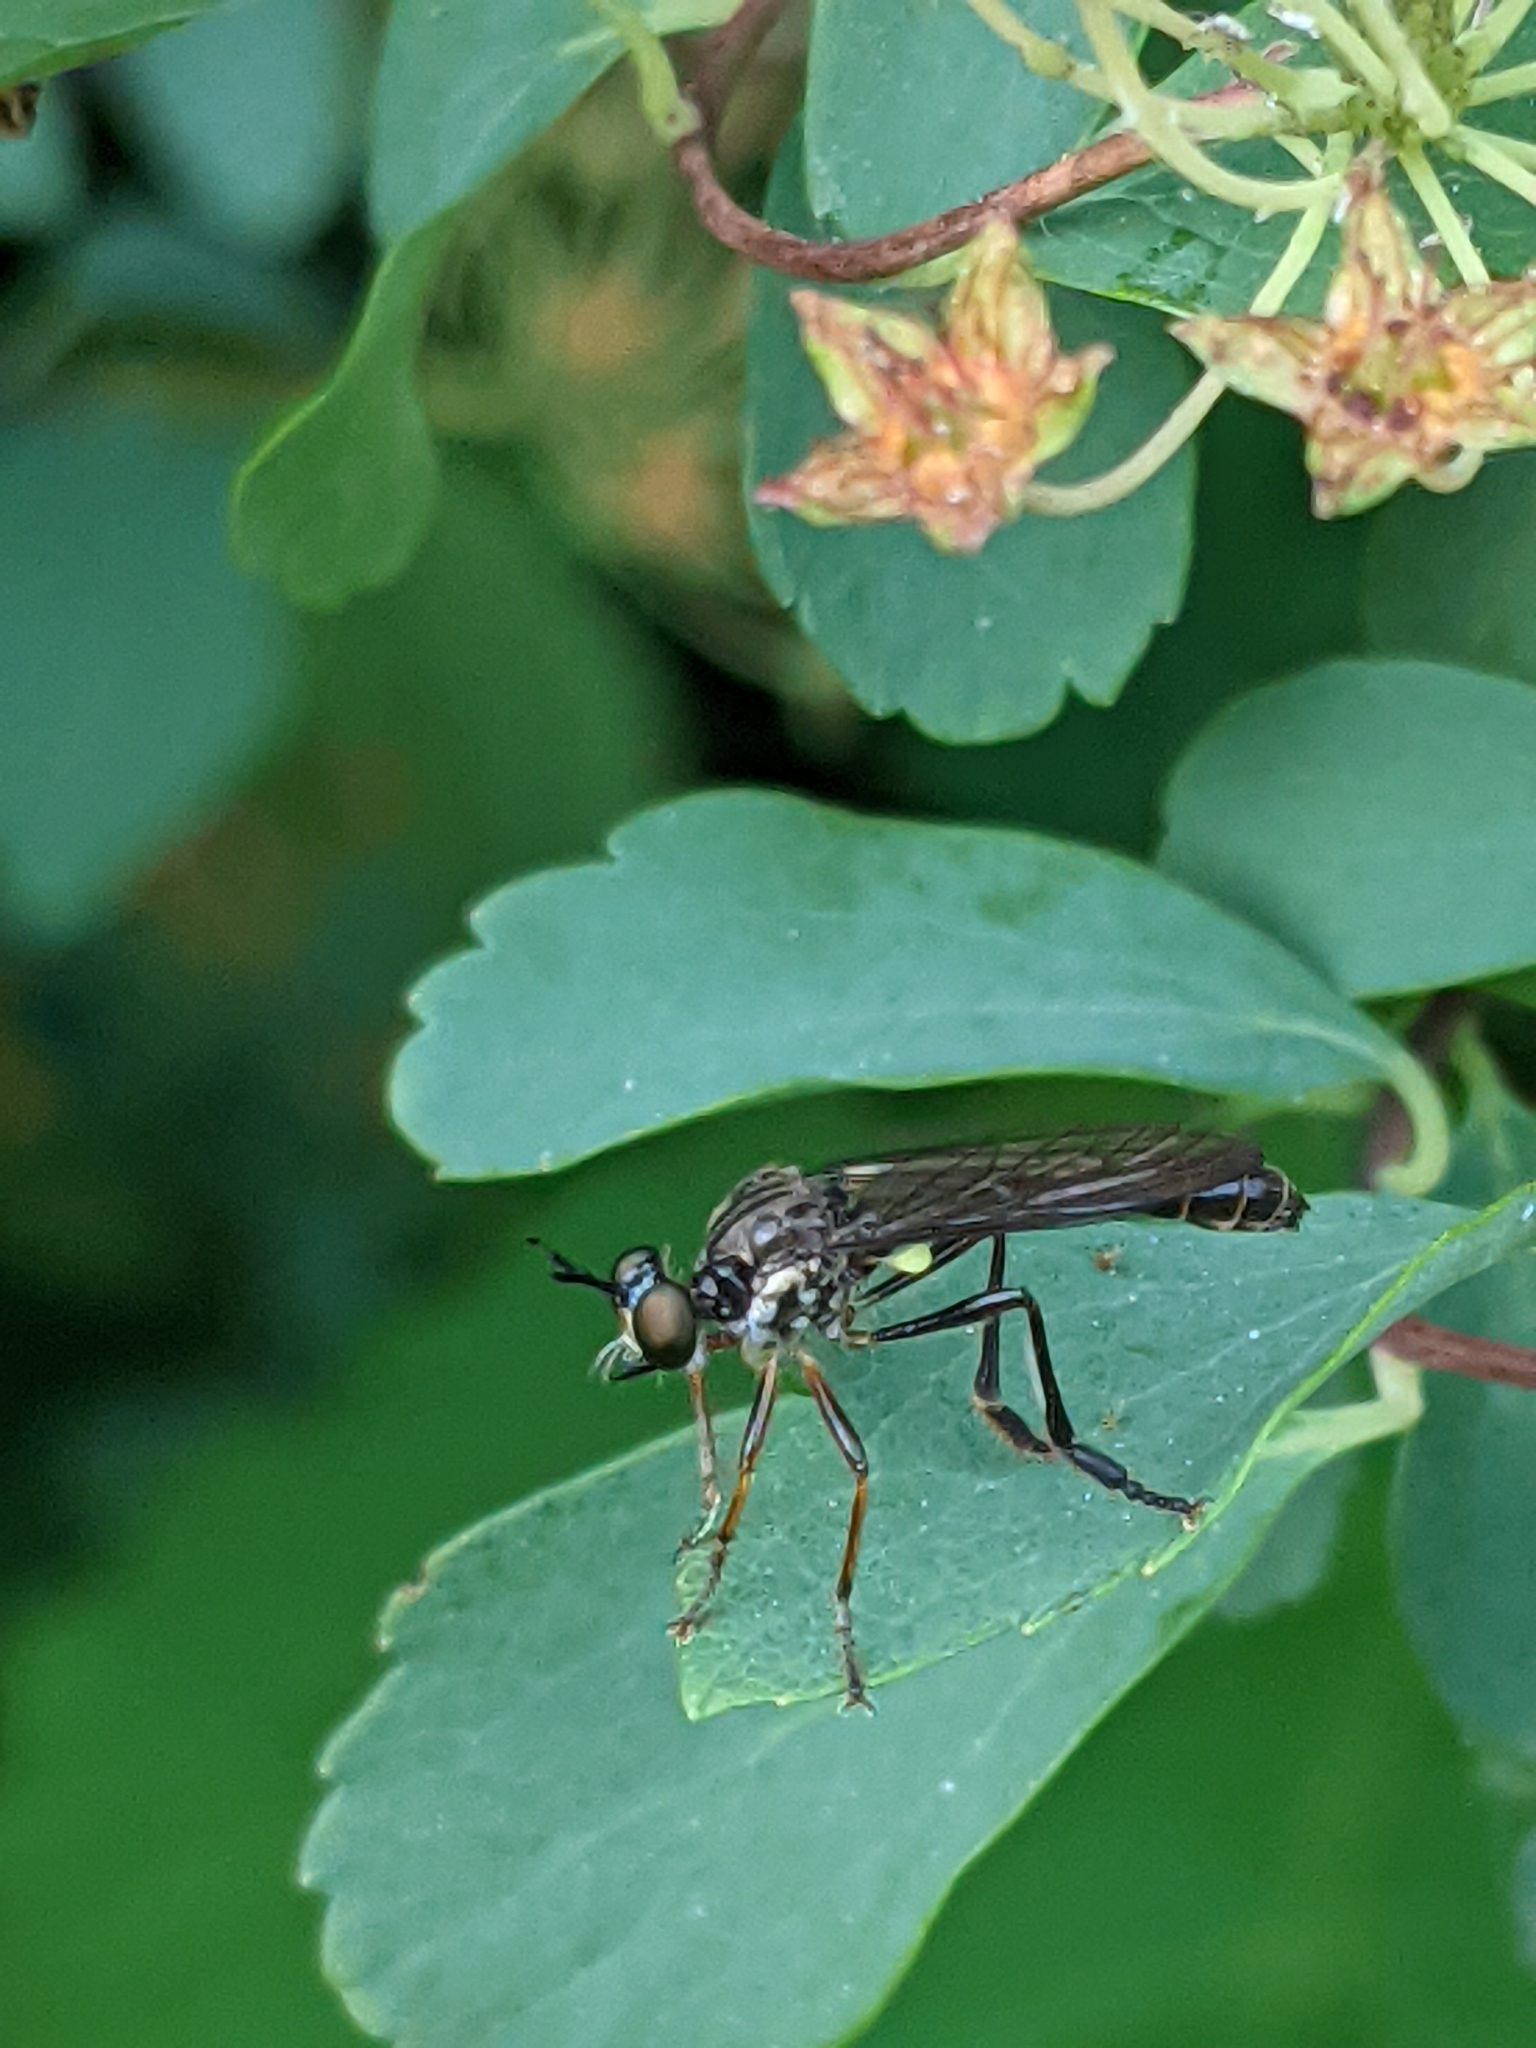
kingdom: Animalia
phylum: Arthropoda
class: Insecta
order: Diptera
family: Asilidae
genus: Dioctria
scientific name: Dioctria hyalipennis
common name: Stripe-legged robberfly
